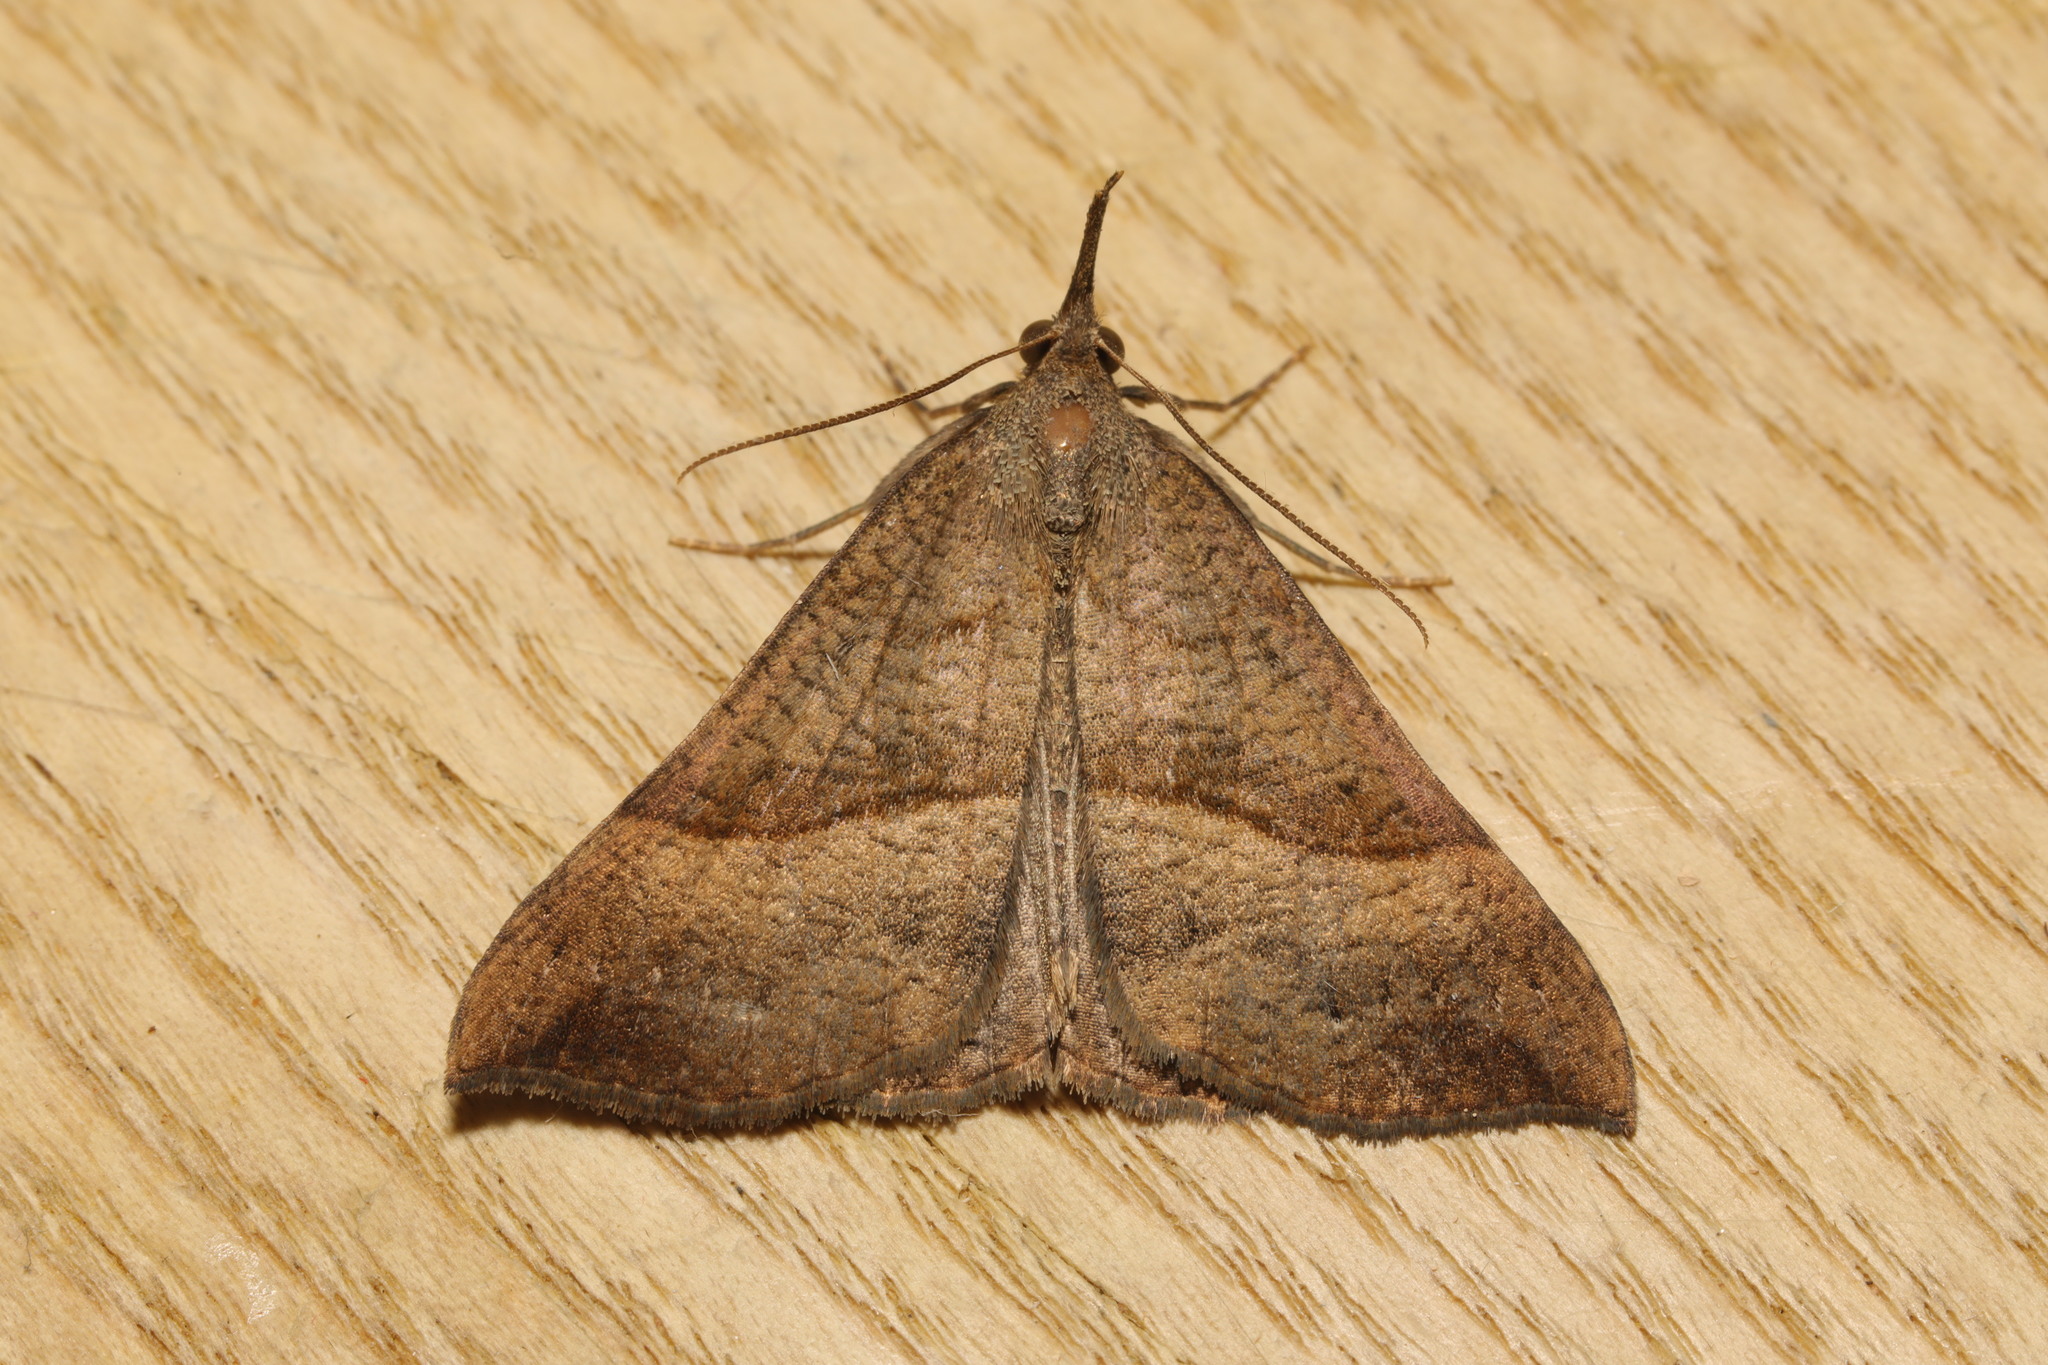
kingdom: Animalia
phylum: Arthropoda
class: Insecta
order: Lepidoptera
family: Erebidae
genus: Hypena
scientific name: Hypena proboscidalis
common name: Snout
